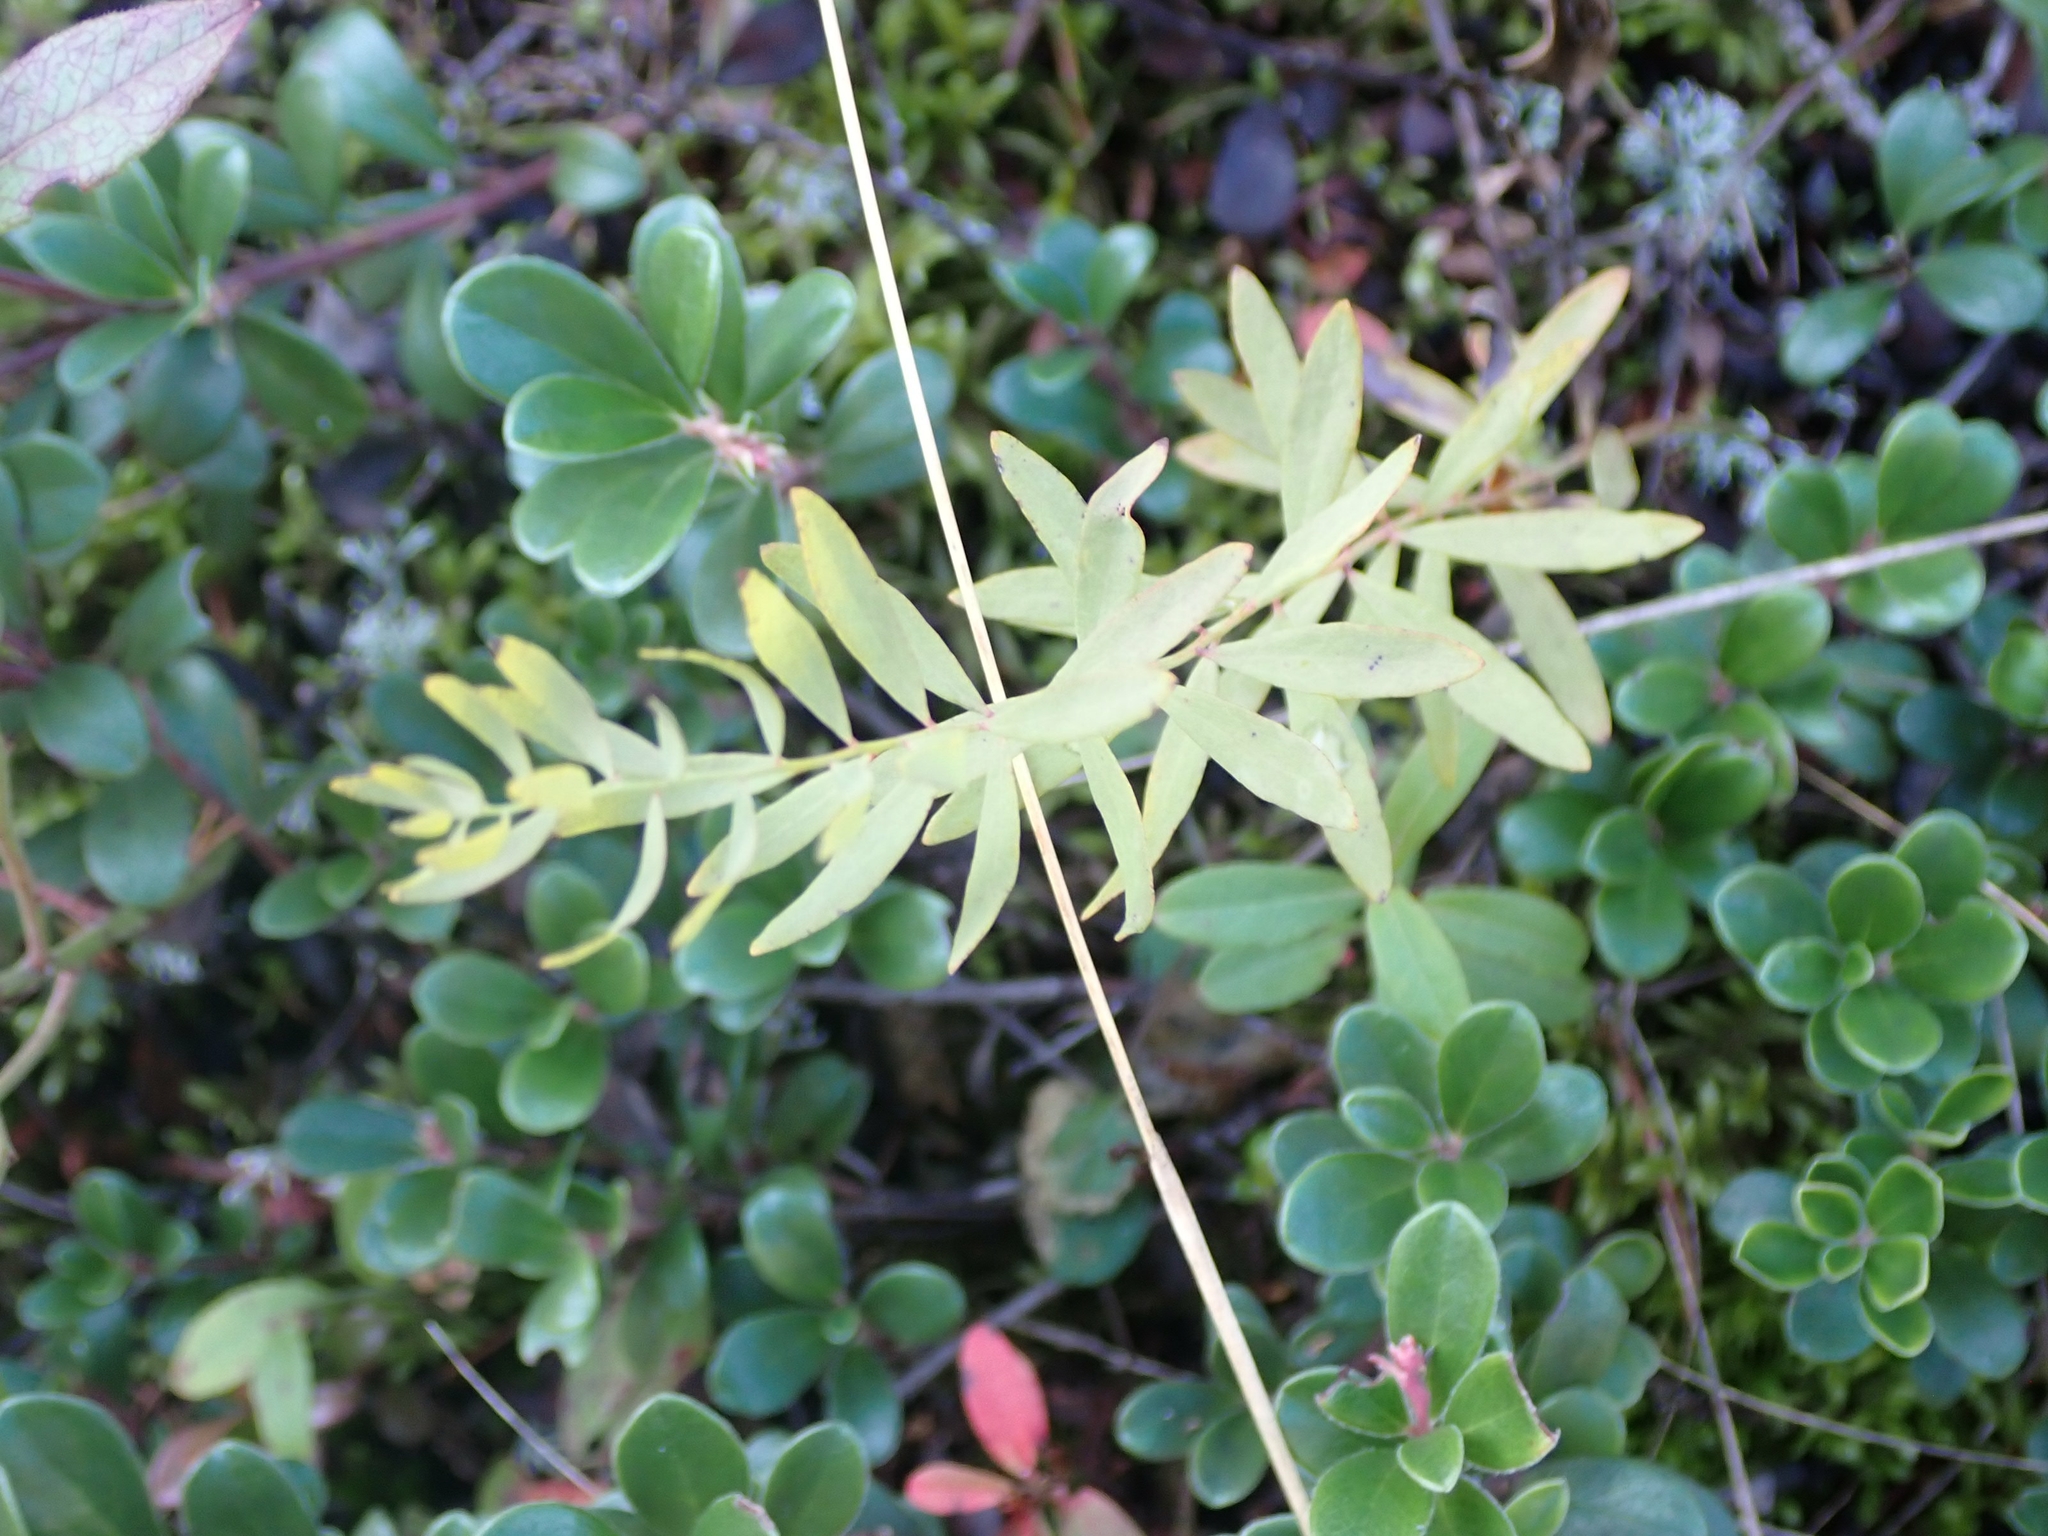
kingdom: Plantae
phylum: Tracheophyta
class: Magnoliopsida
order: Santalales
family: Comandraceae
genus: Comandra
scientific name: Comandra umbellata
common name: Bastard toadflax
